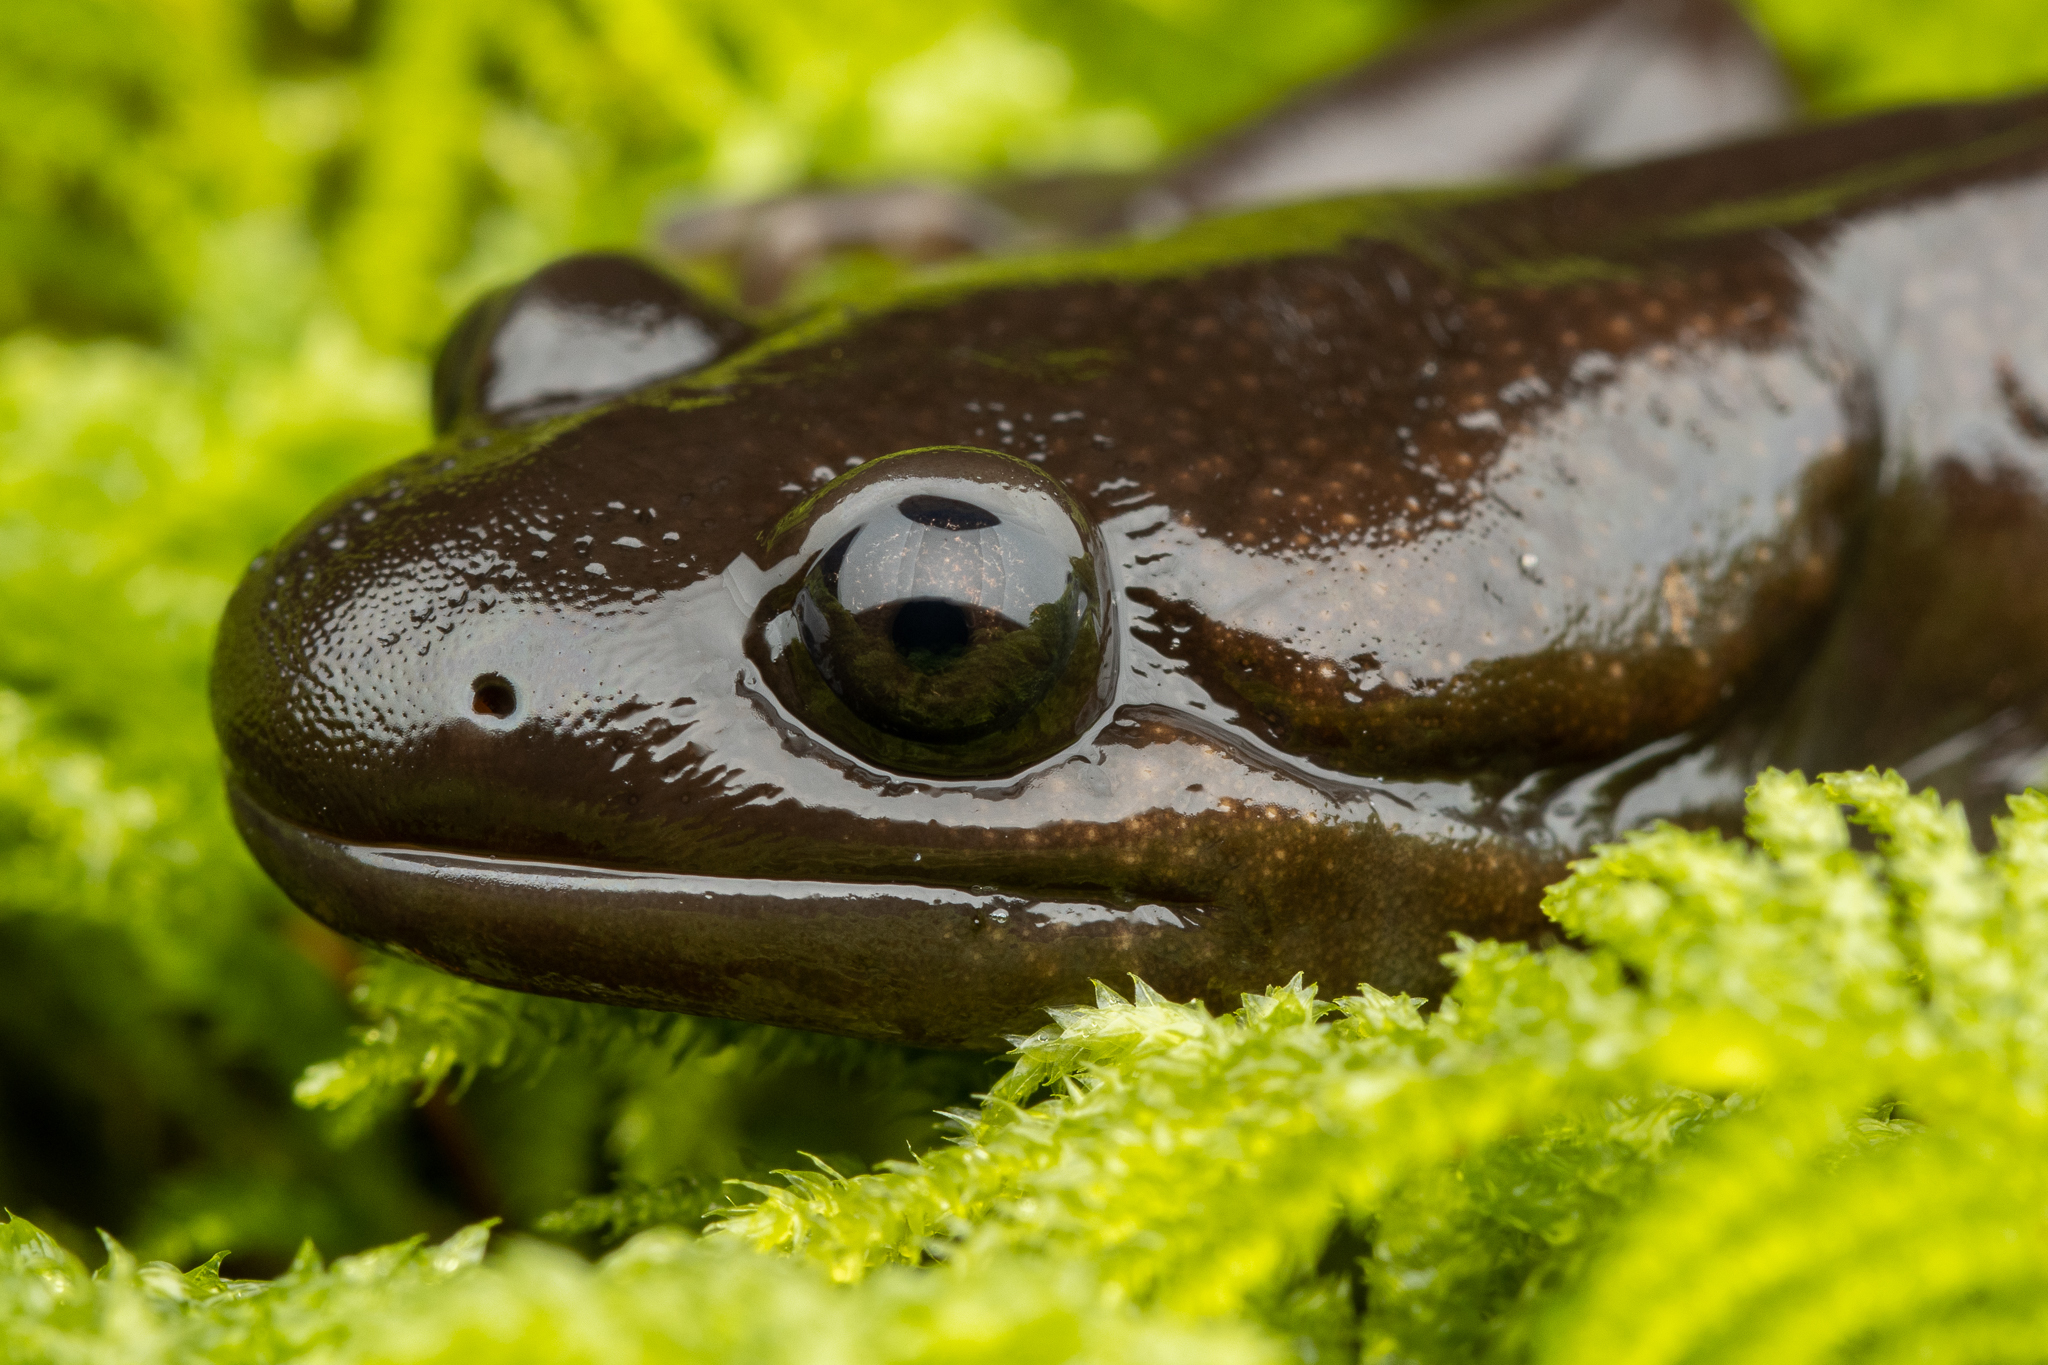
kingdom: Animalia
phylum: Chordata
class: Amphibia
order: Caudata
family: Ambystomatidae
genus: Ambystoma
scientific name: Ambystoma gracile
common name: Northwestern salamander
